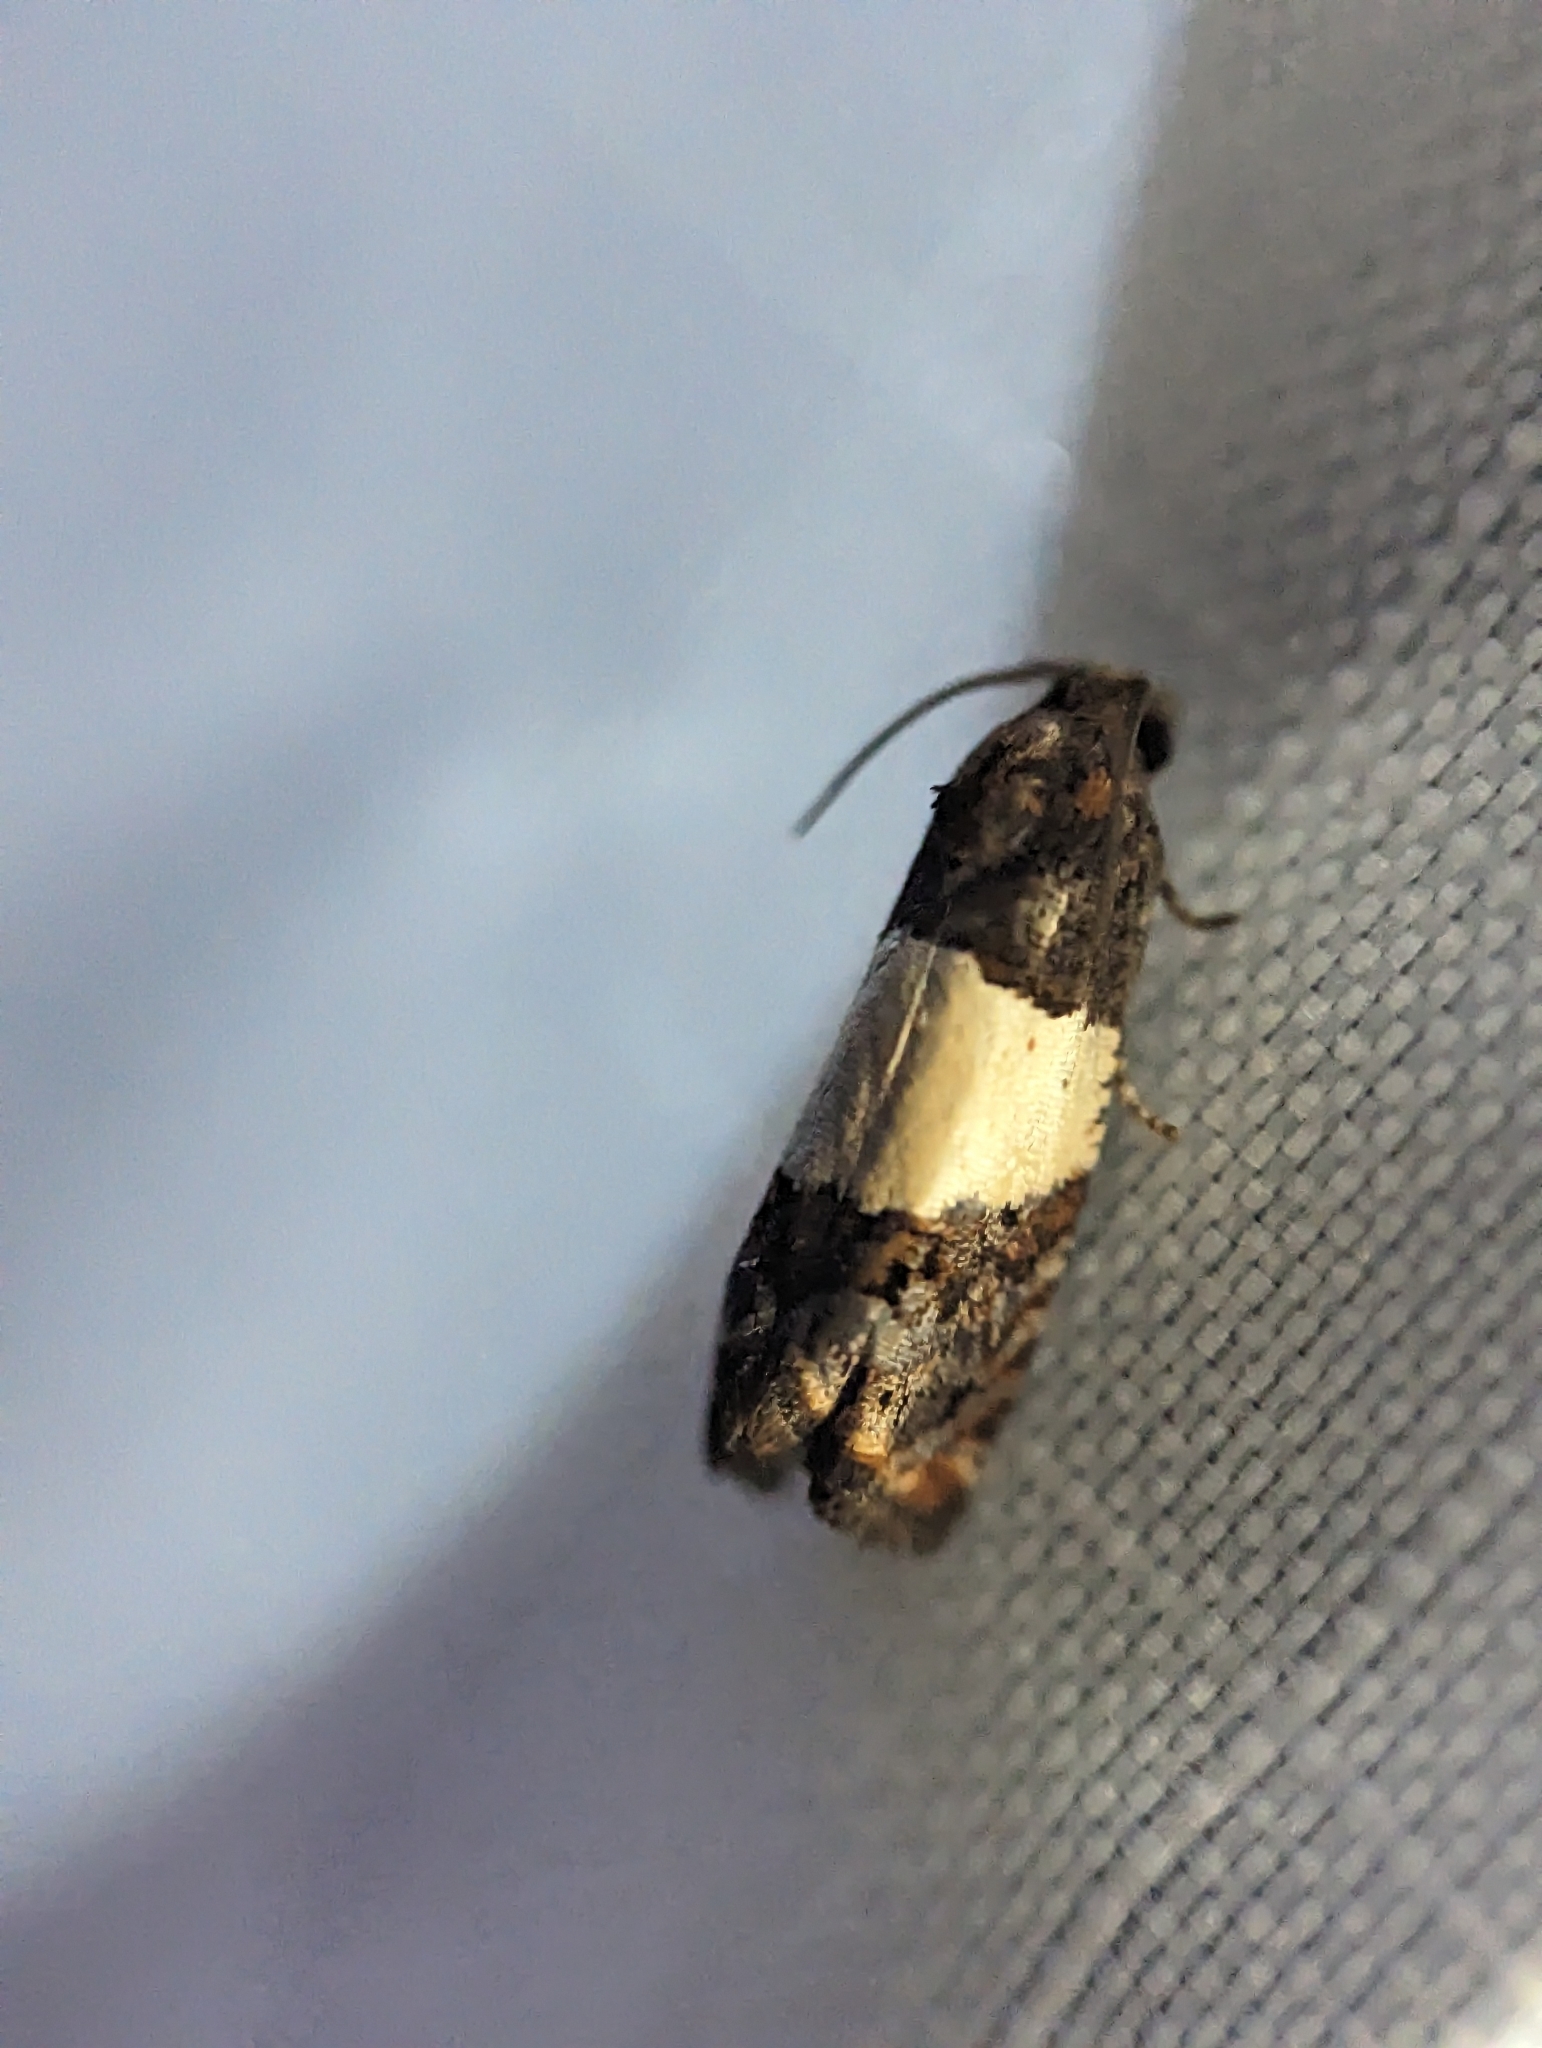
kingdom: Animalia
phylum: Arthropoda
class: Insecta
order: Lepidoptera
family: Tortricidae
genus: Epiblema
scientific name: Epiblema tripartitana
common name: Three-parted epiblema moth
